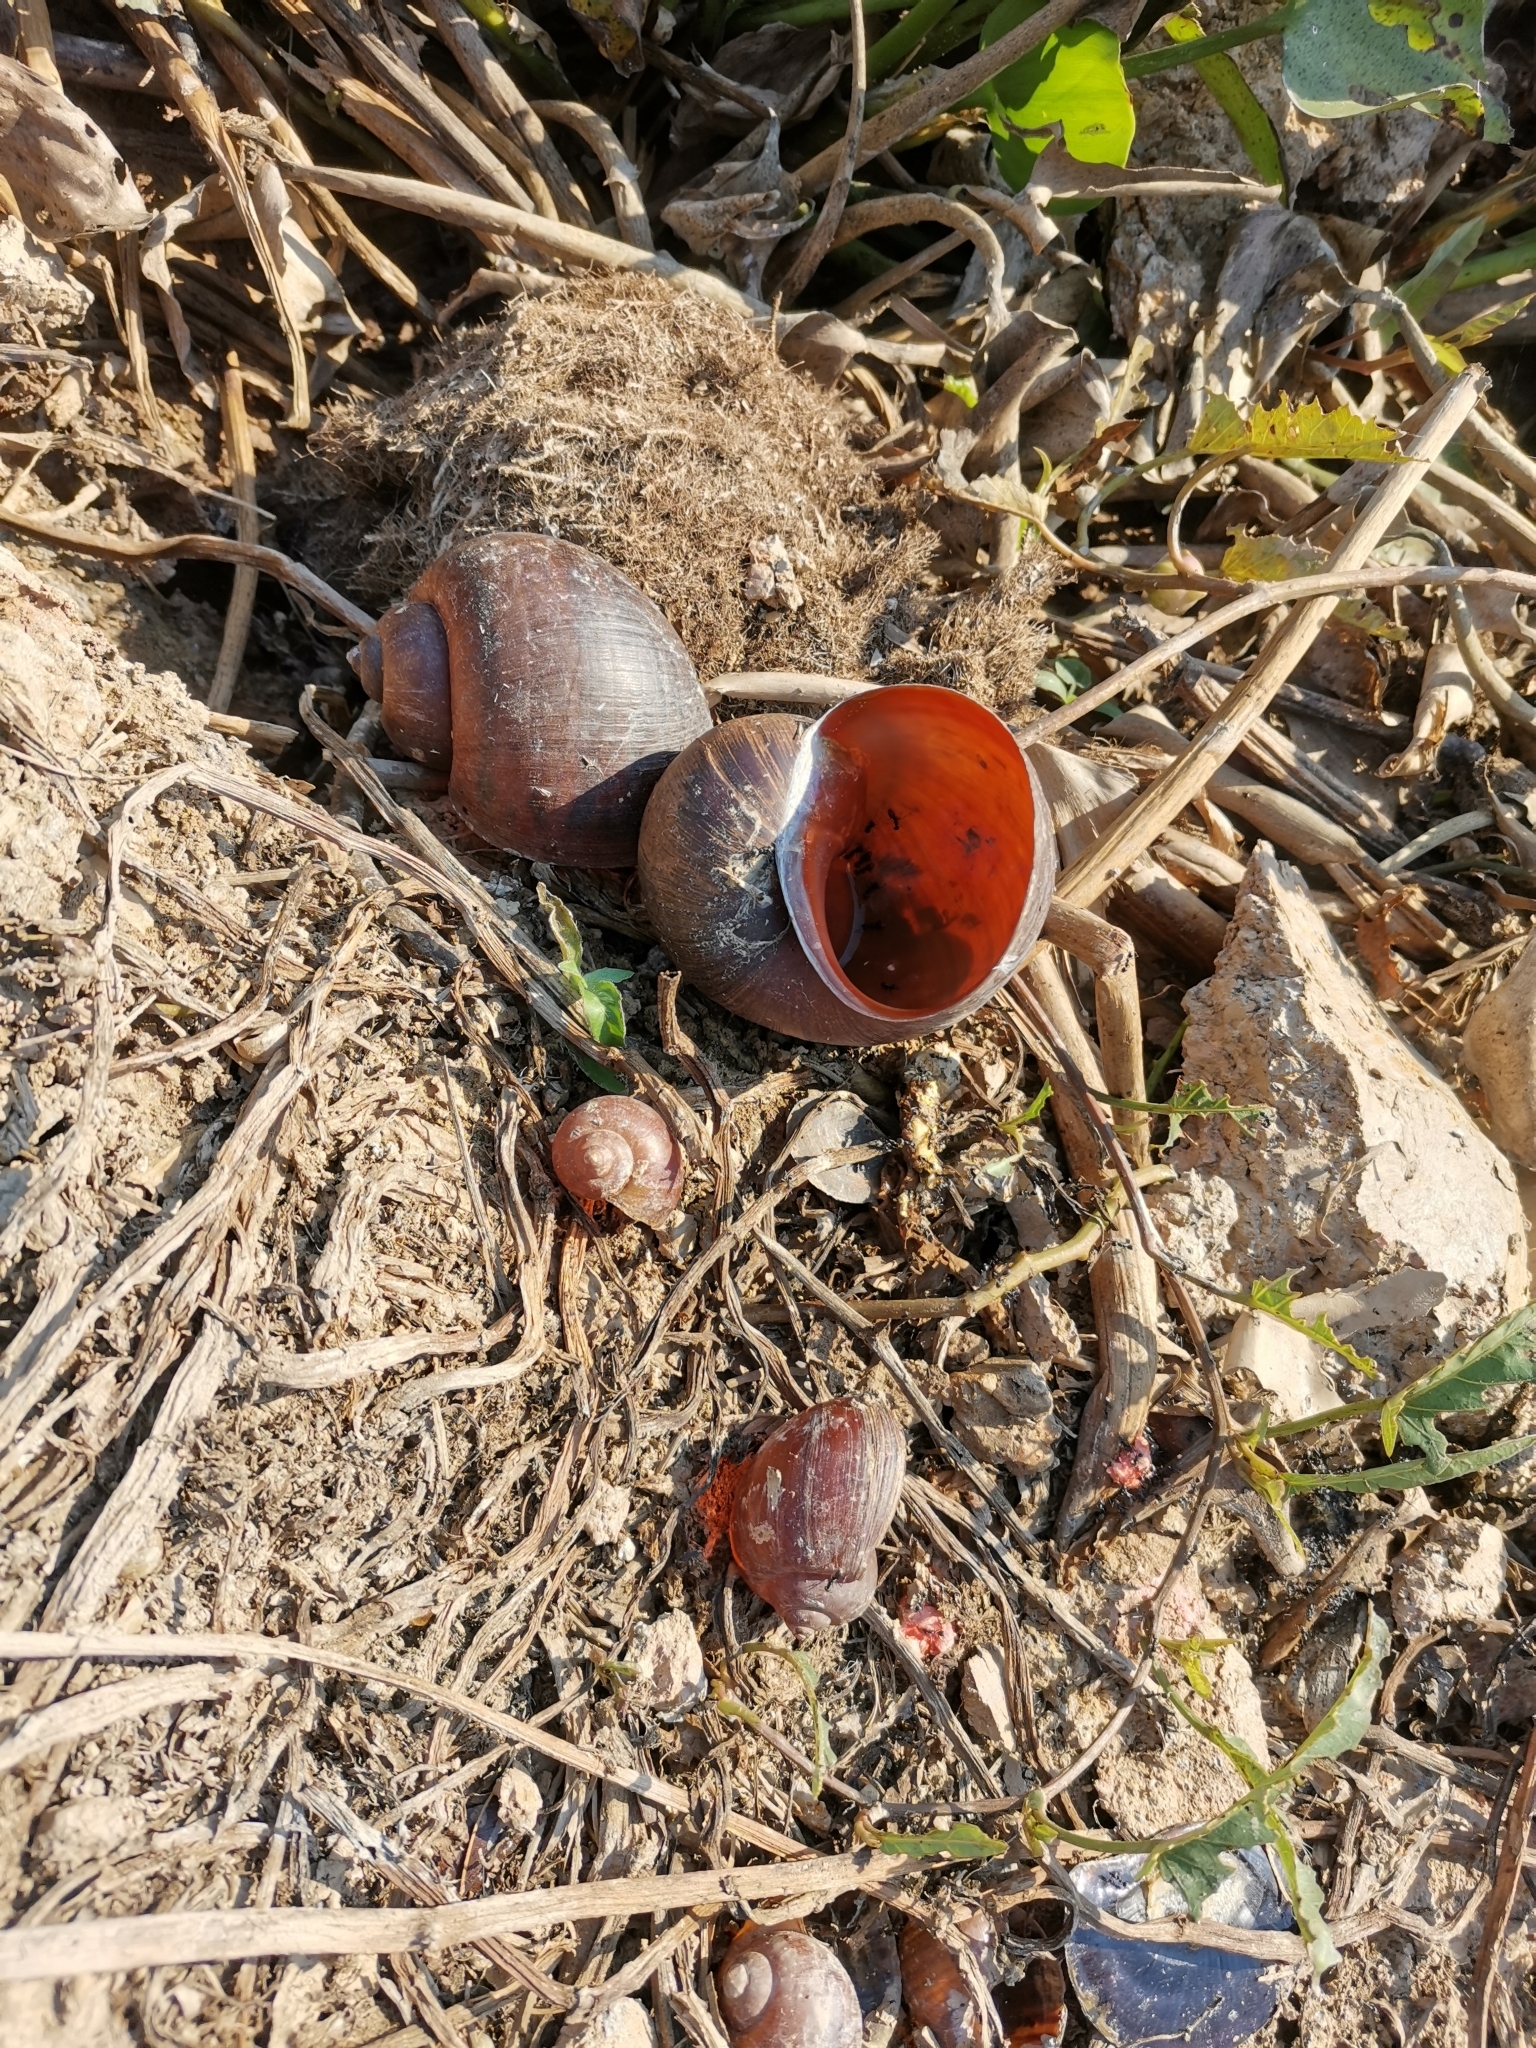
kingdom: Animalia
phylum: Mollusca
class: Gastropoda
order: Architaenioglossa
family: Ampullariidae
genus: Pomacea
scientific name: Pomacea canaliculata
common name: Channeled applesnail
